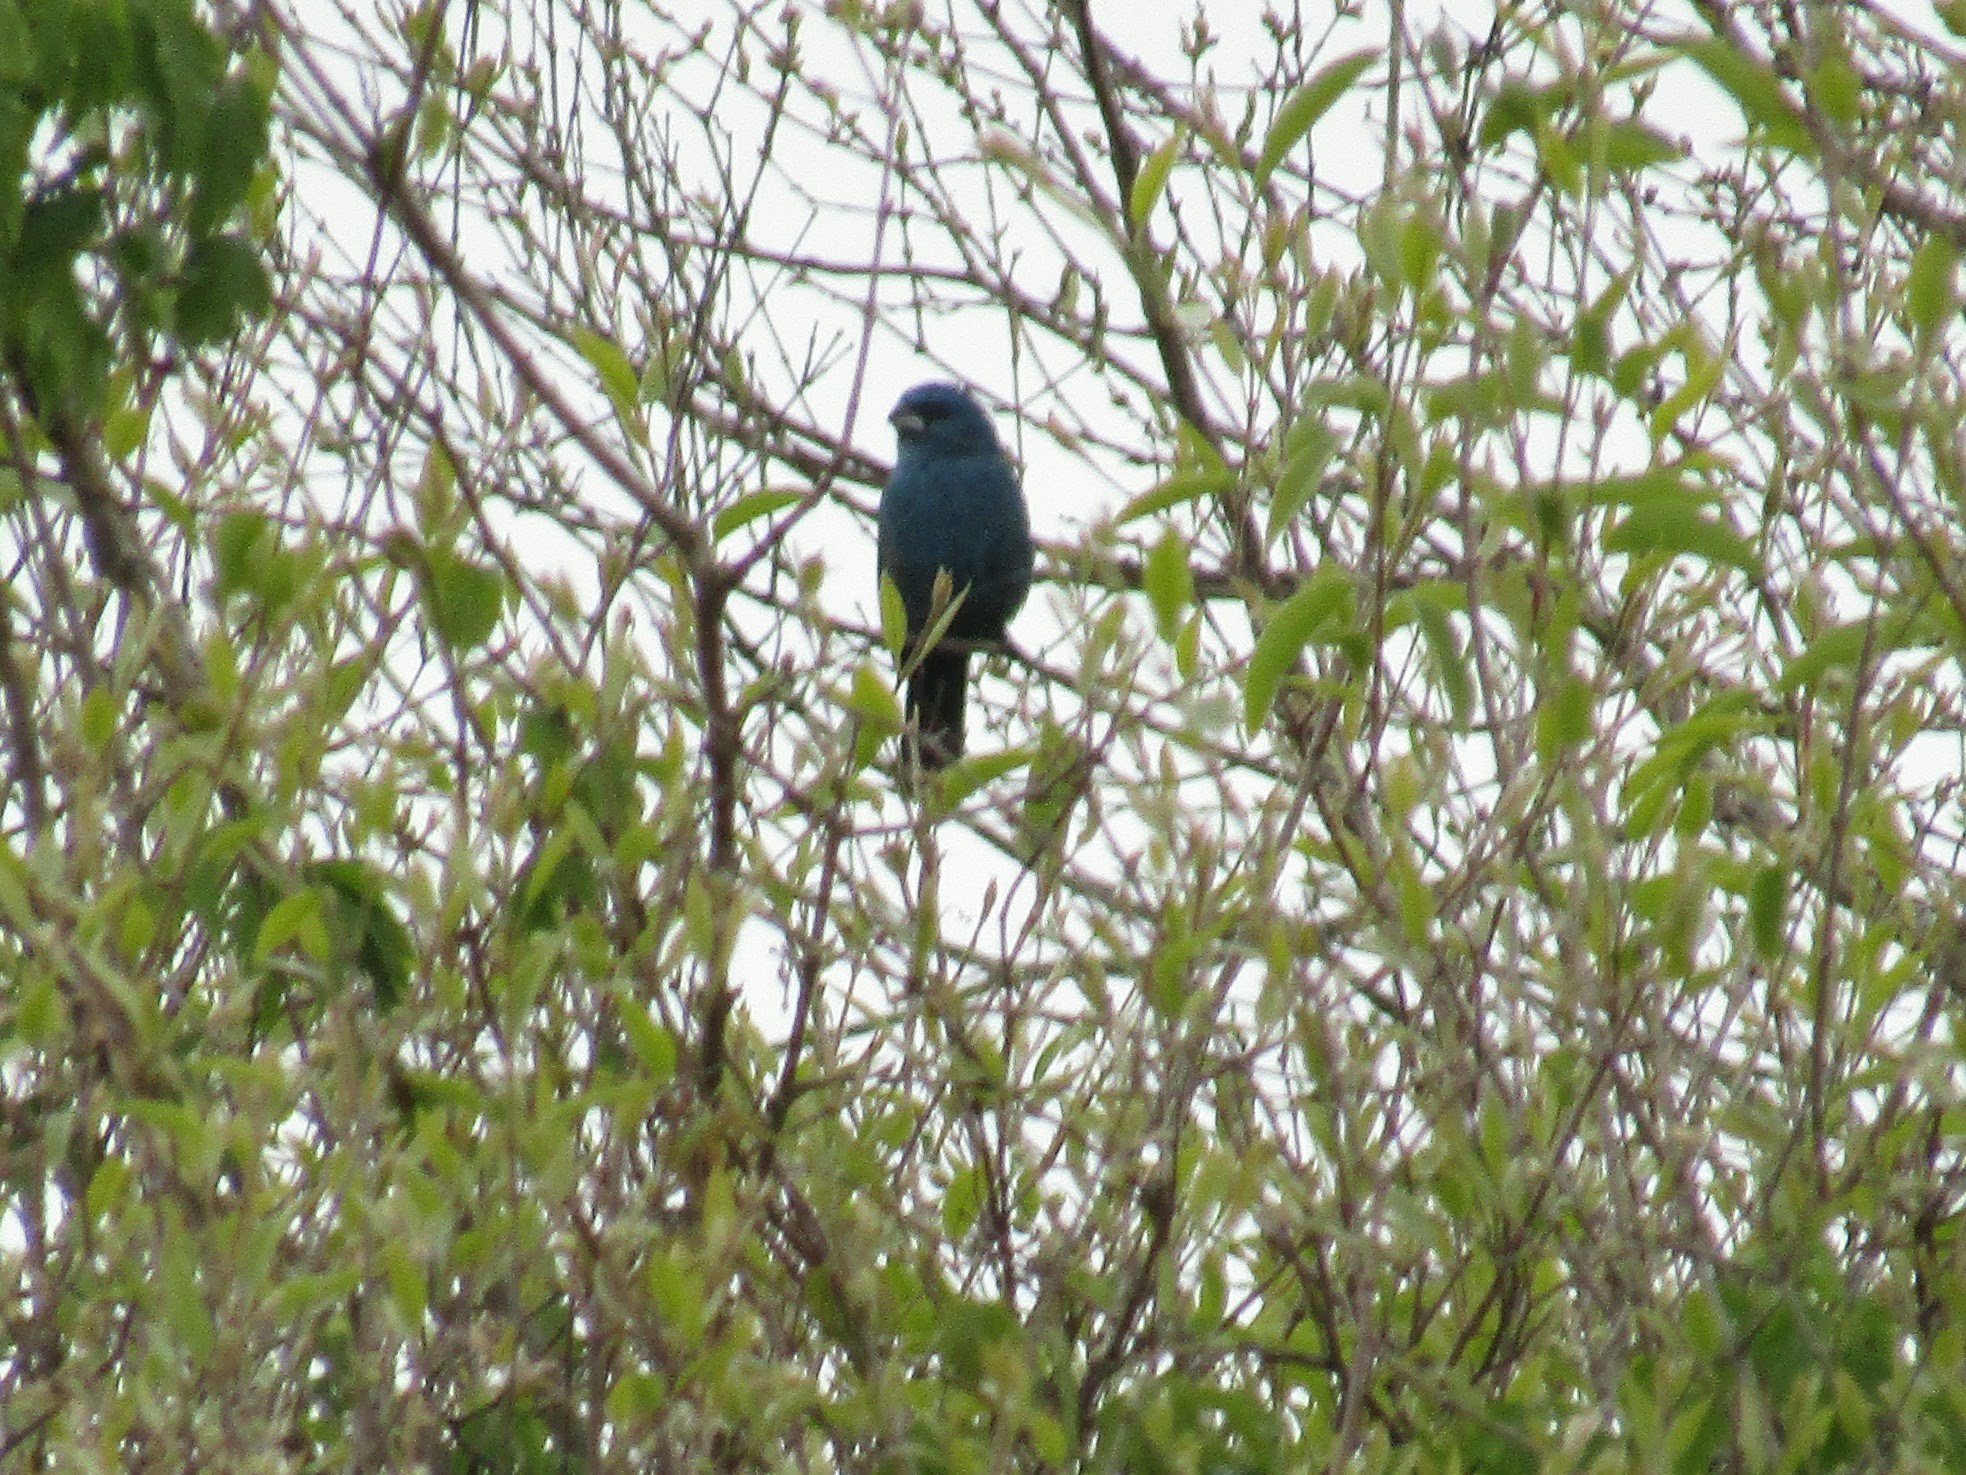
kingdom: Animalia
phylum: Chordata
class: Aves
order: Passeriformes
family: Cardinalidae
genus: Cyanoloxia
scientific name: Cyanoloxia glaucocaerulea
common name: Glaucous-blue grosbeak
